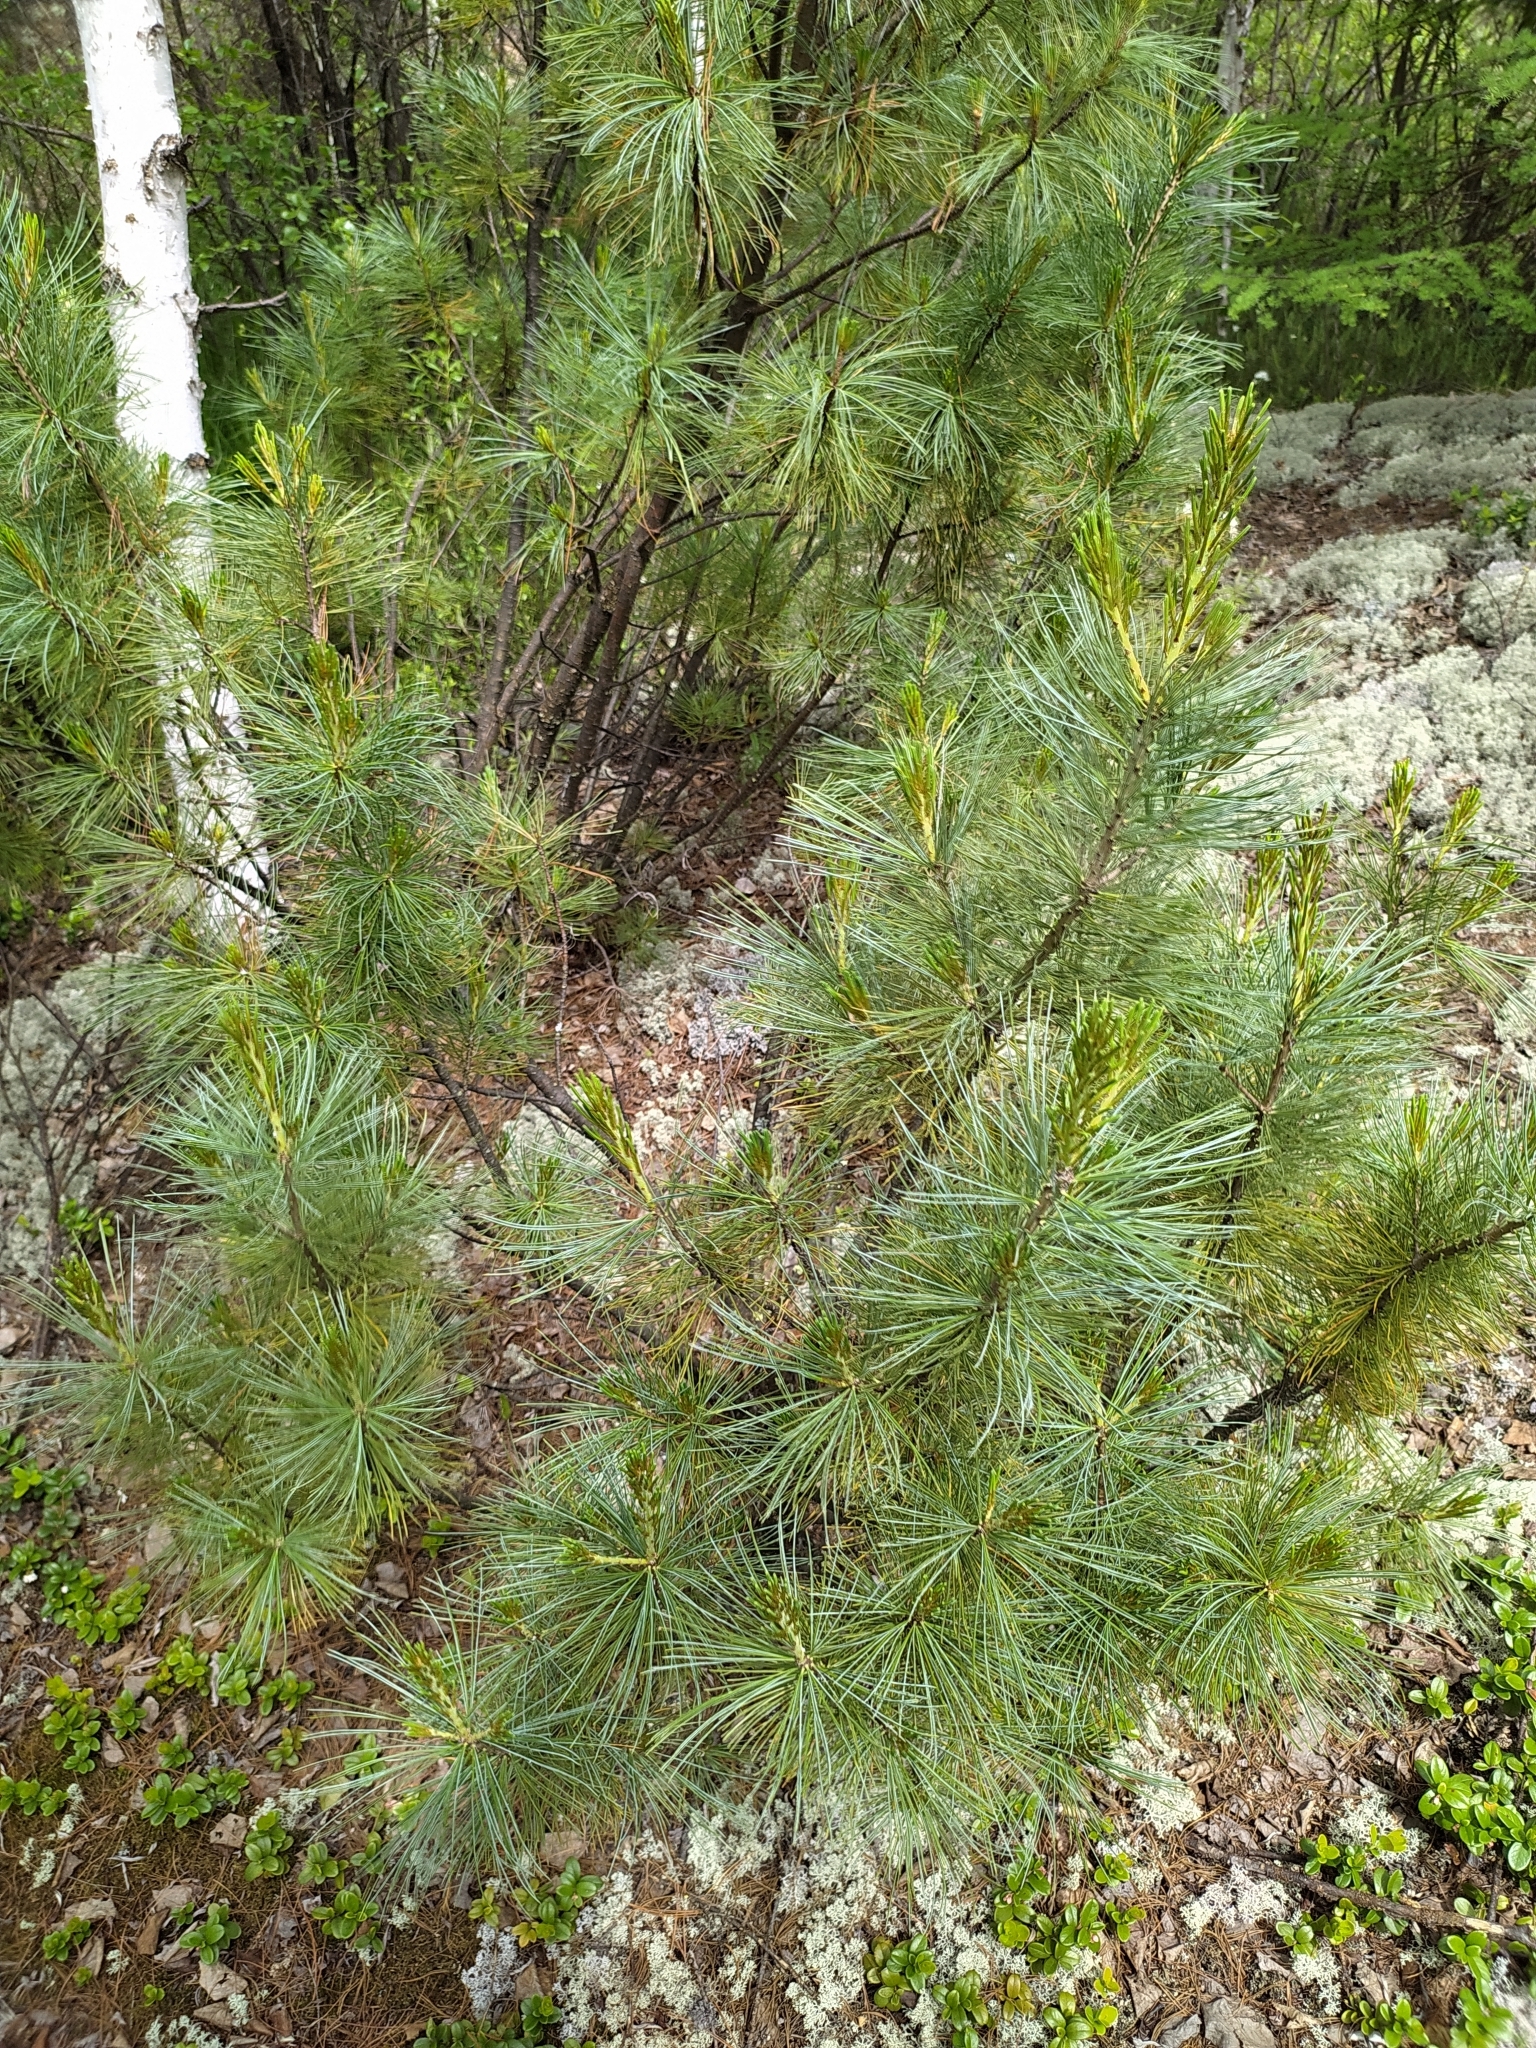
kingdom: Plantae
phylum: Tracheophyta
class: Pinopsida
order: Pinales
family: Pinaceae
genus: Pinus
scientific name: Pinus pumila
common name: Dwarf siberian pine
